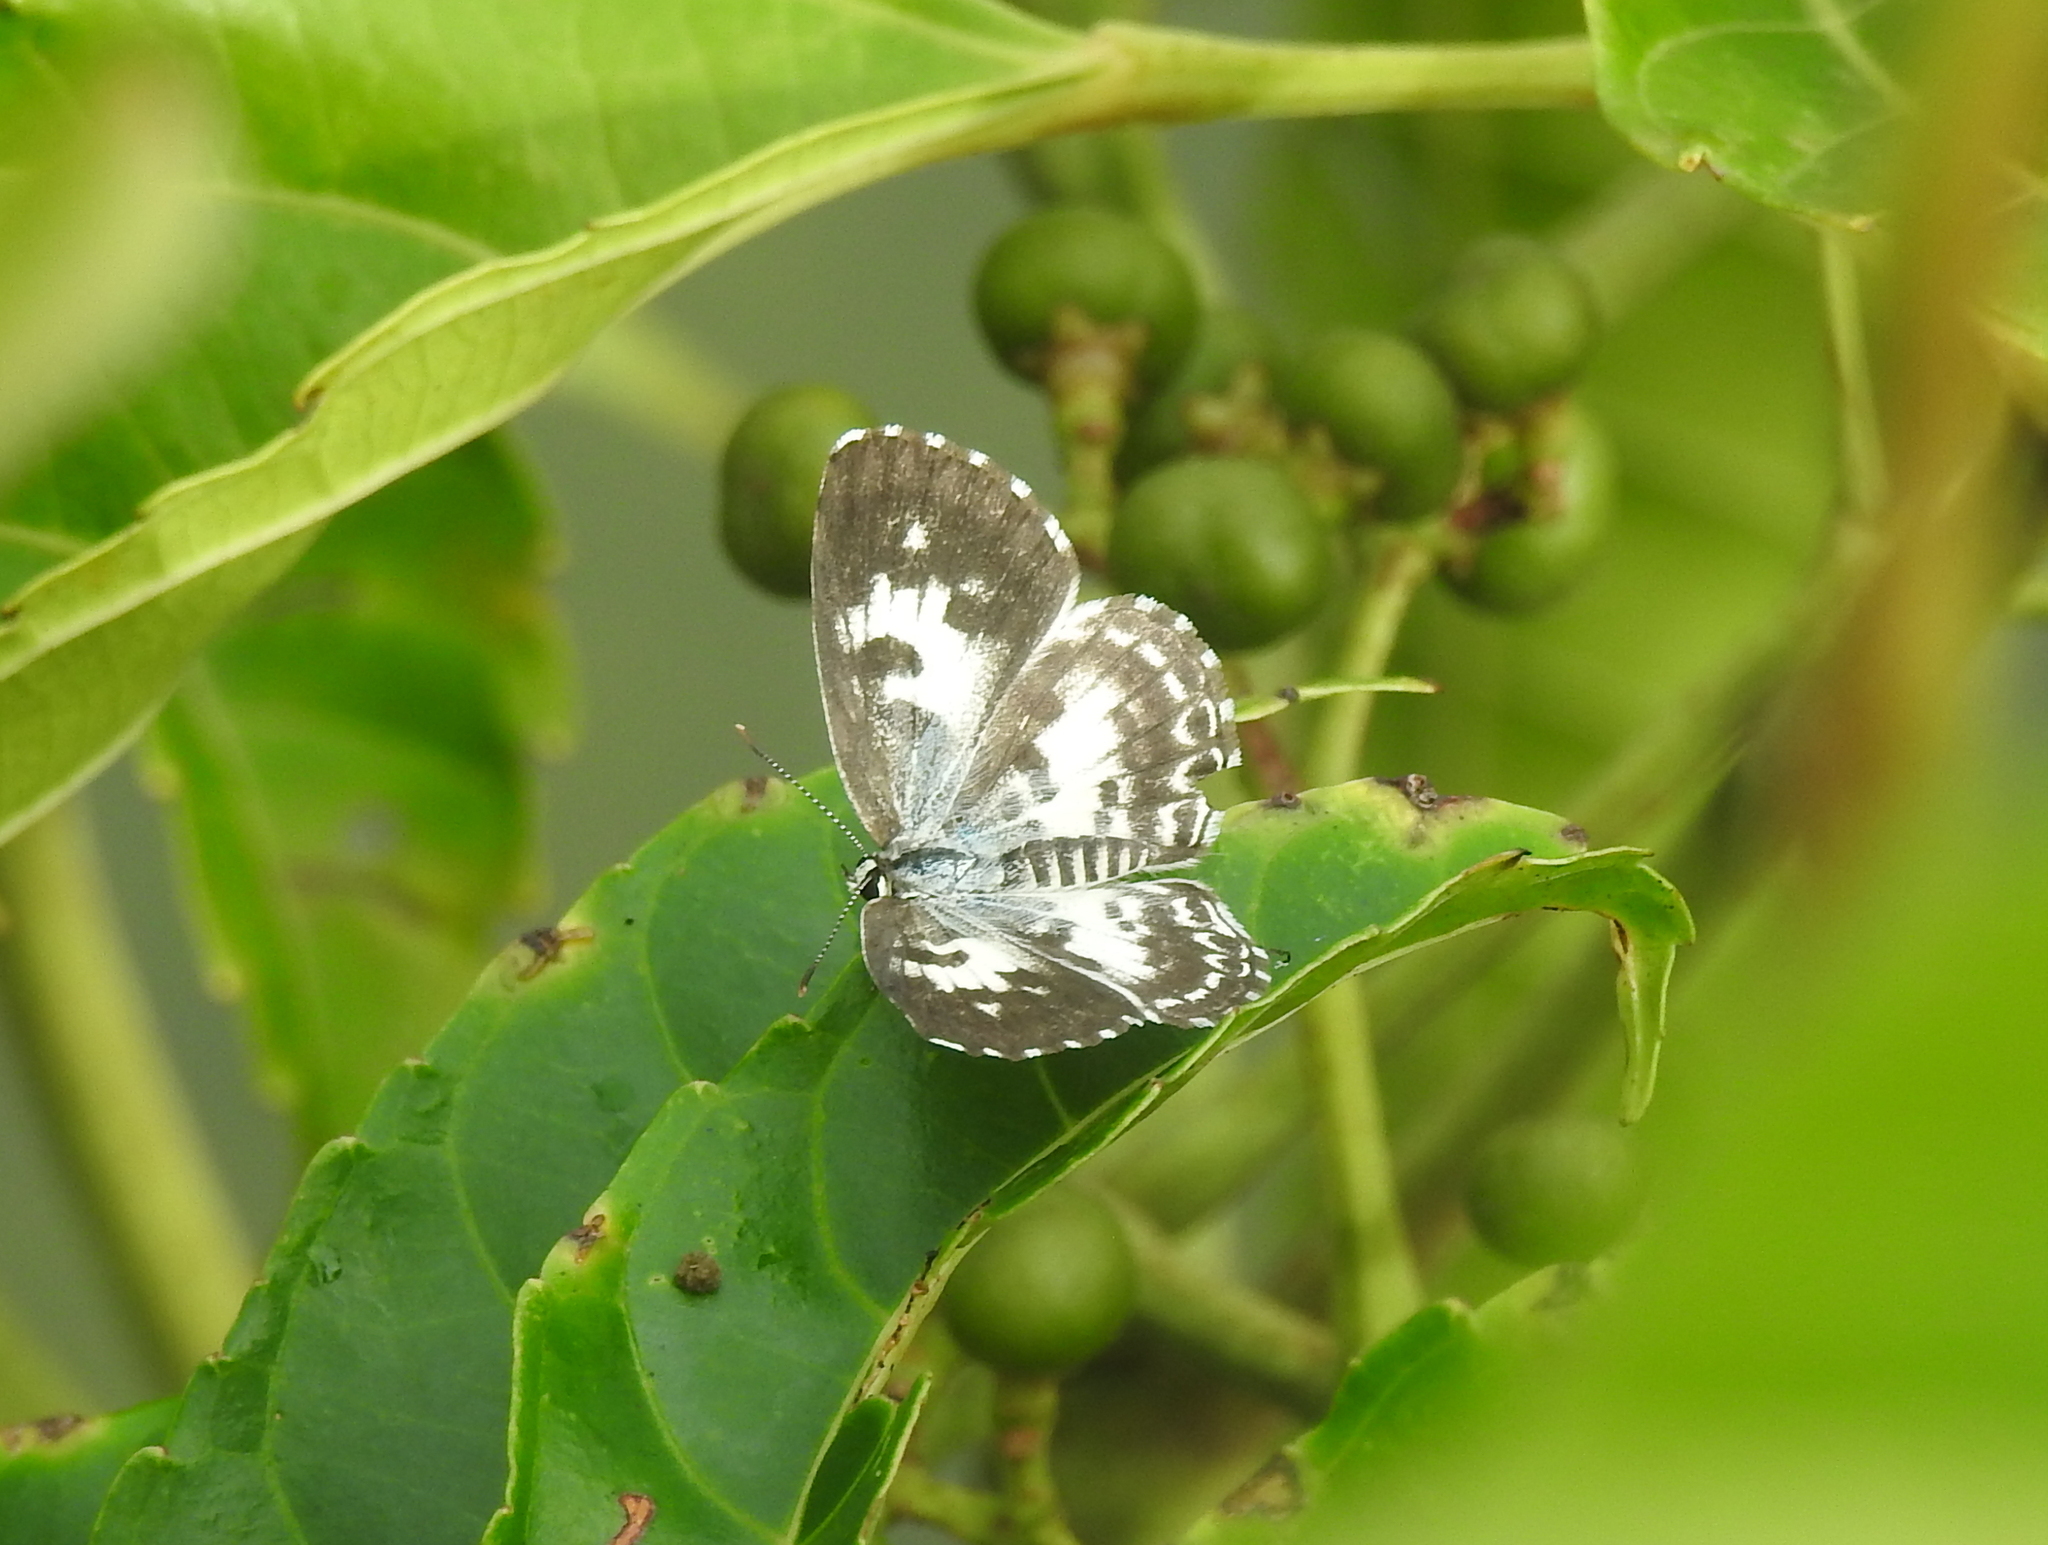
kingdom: Animalia
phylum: Arthropoda
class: Insecta
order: Lepidoptera
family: Lycaenidae
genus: Castalius
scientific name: Castalius rosimon
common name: Common pierrot
